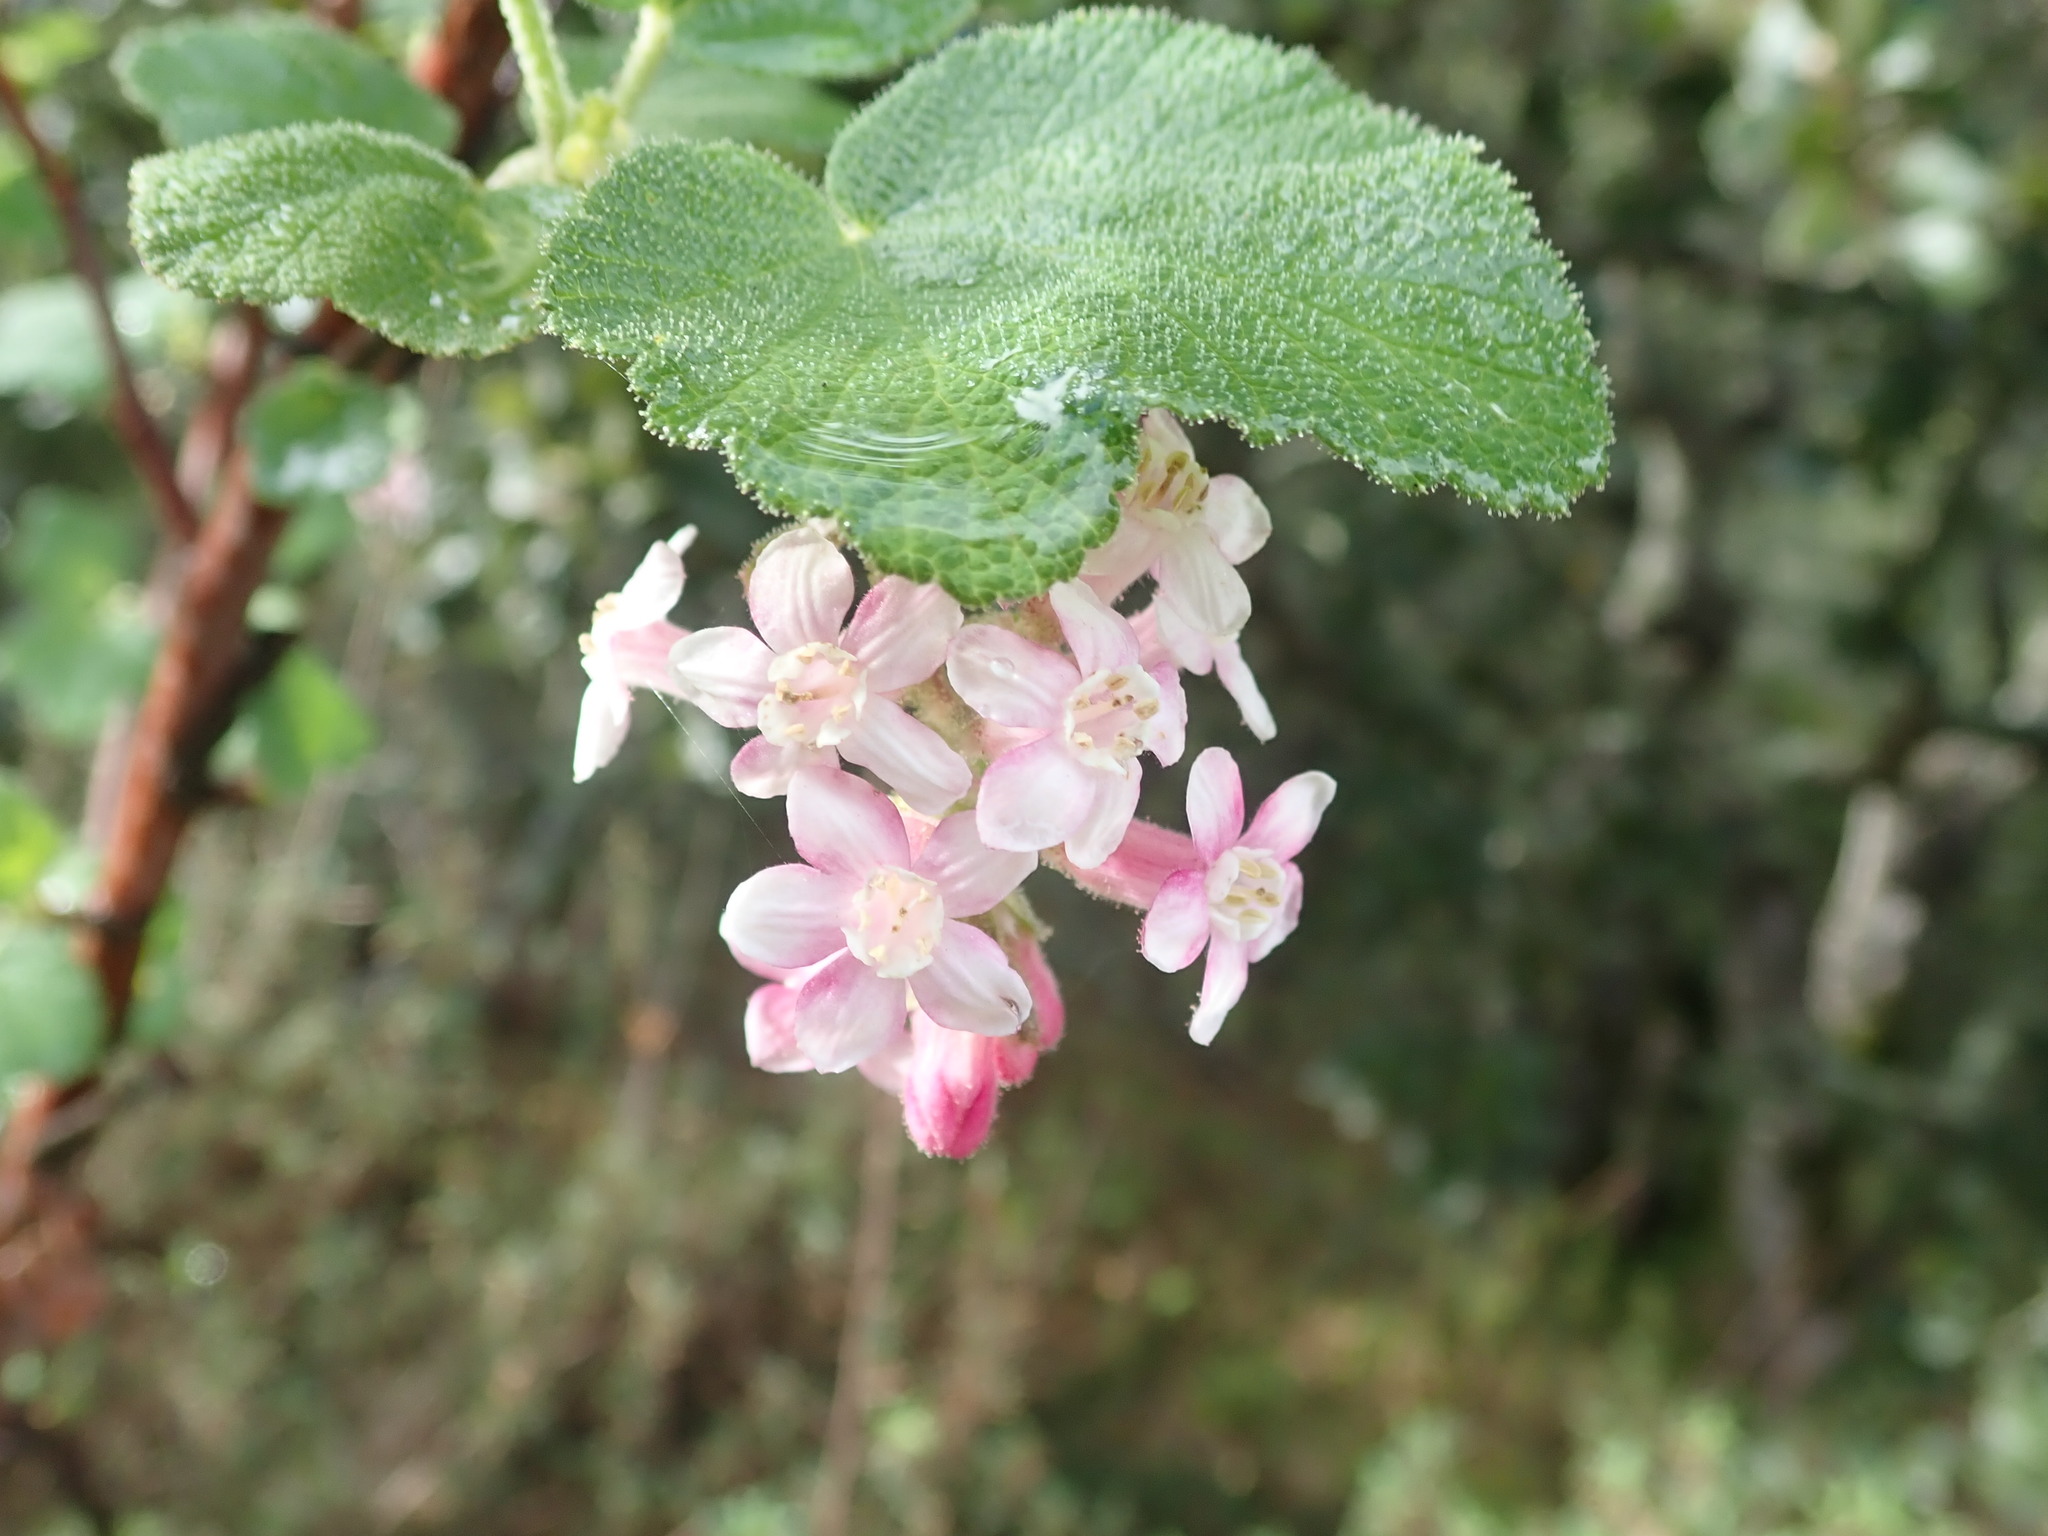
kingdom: Plantae
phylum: Tracheophyta
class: Magnoliopsida
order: Saxifragales
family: Grossulariaceae
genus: Ribes
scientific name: Ribes malvaceum
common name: Chaparral currant
